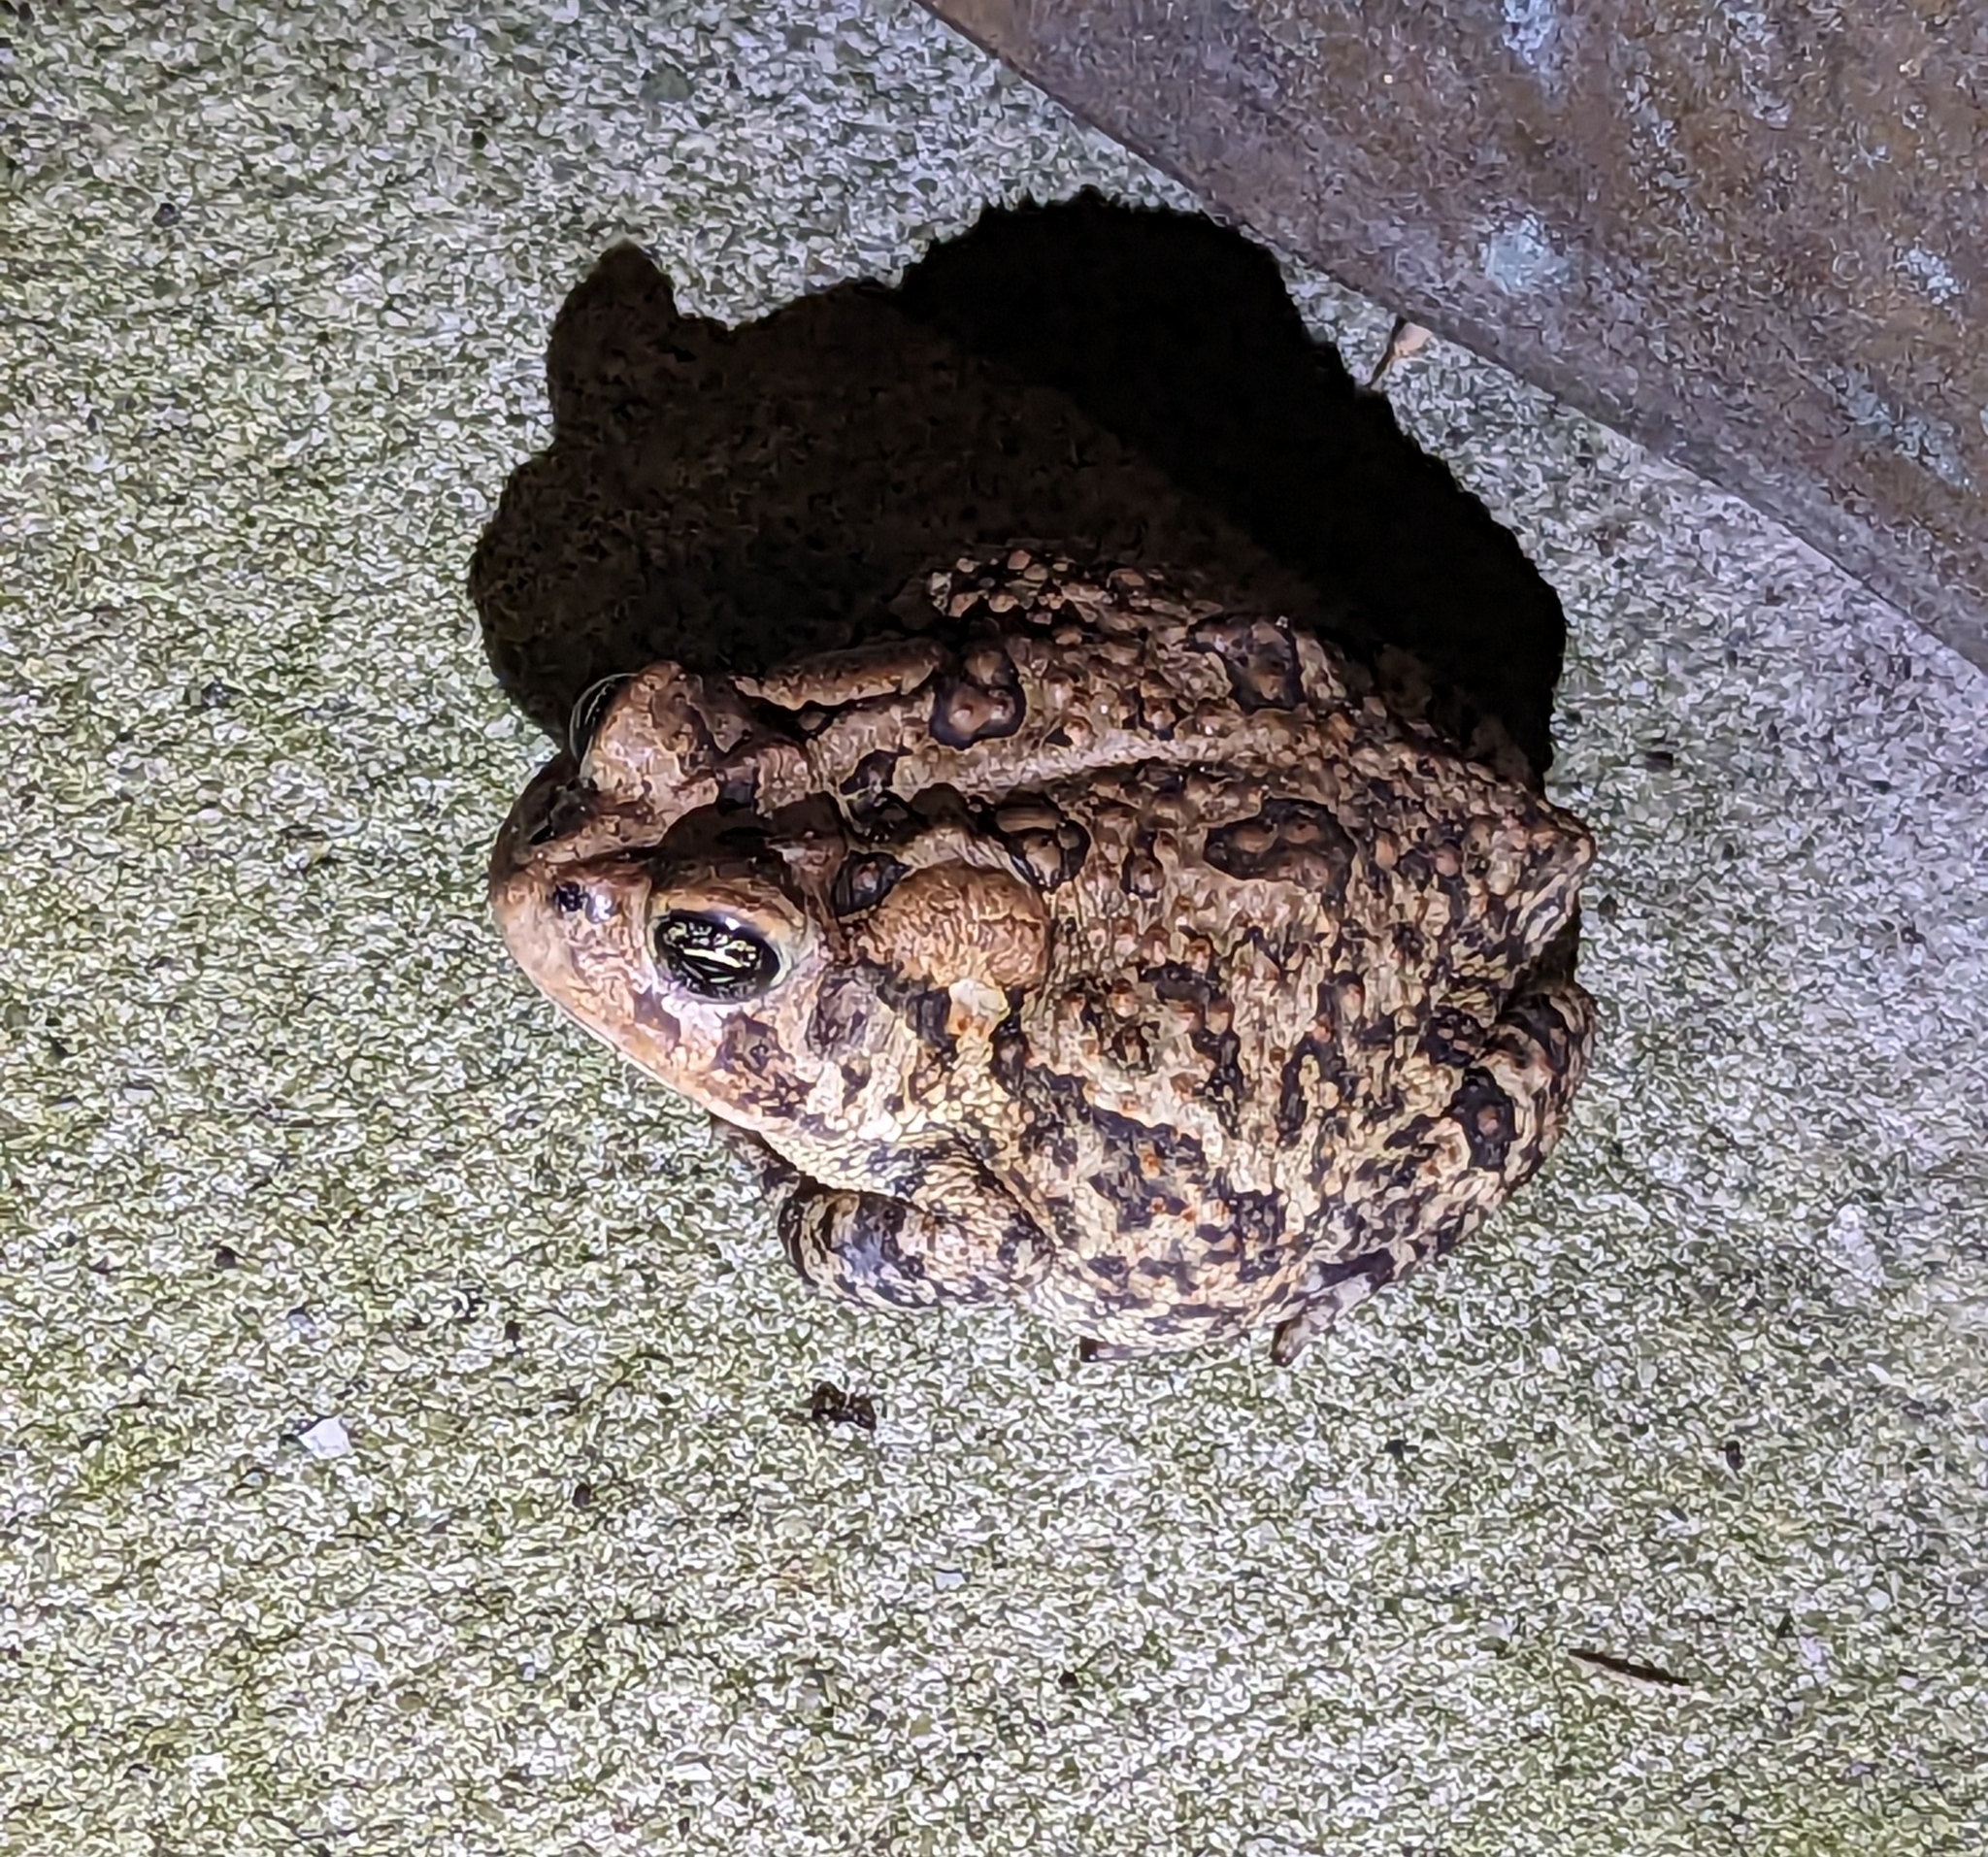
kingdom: Animalia
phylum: Chordata
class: Amphibia
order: Anura
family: Bufonidae
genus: Anaxyrus
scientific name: Anaxyrus terrestris
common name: Southern toad
